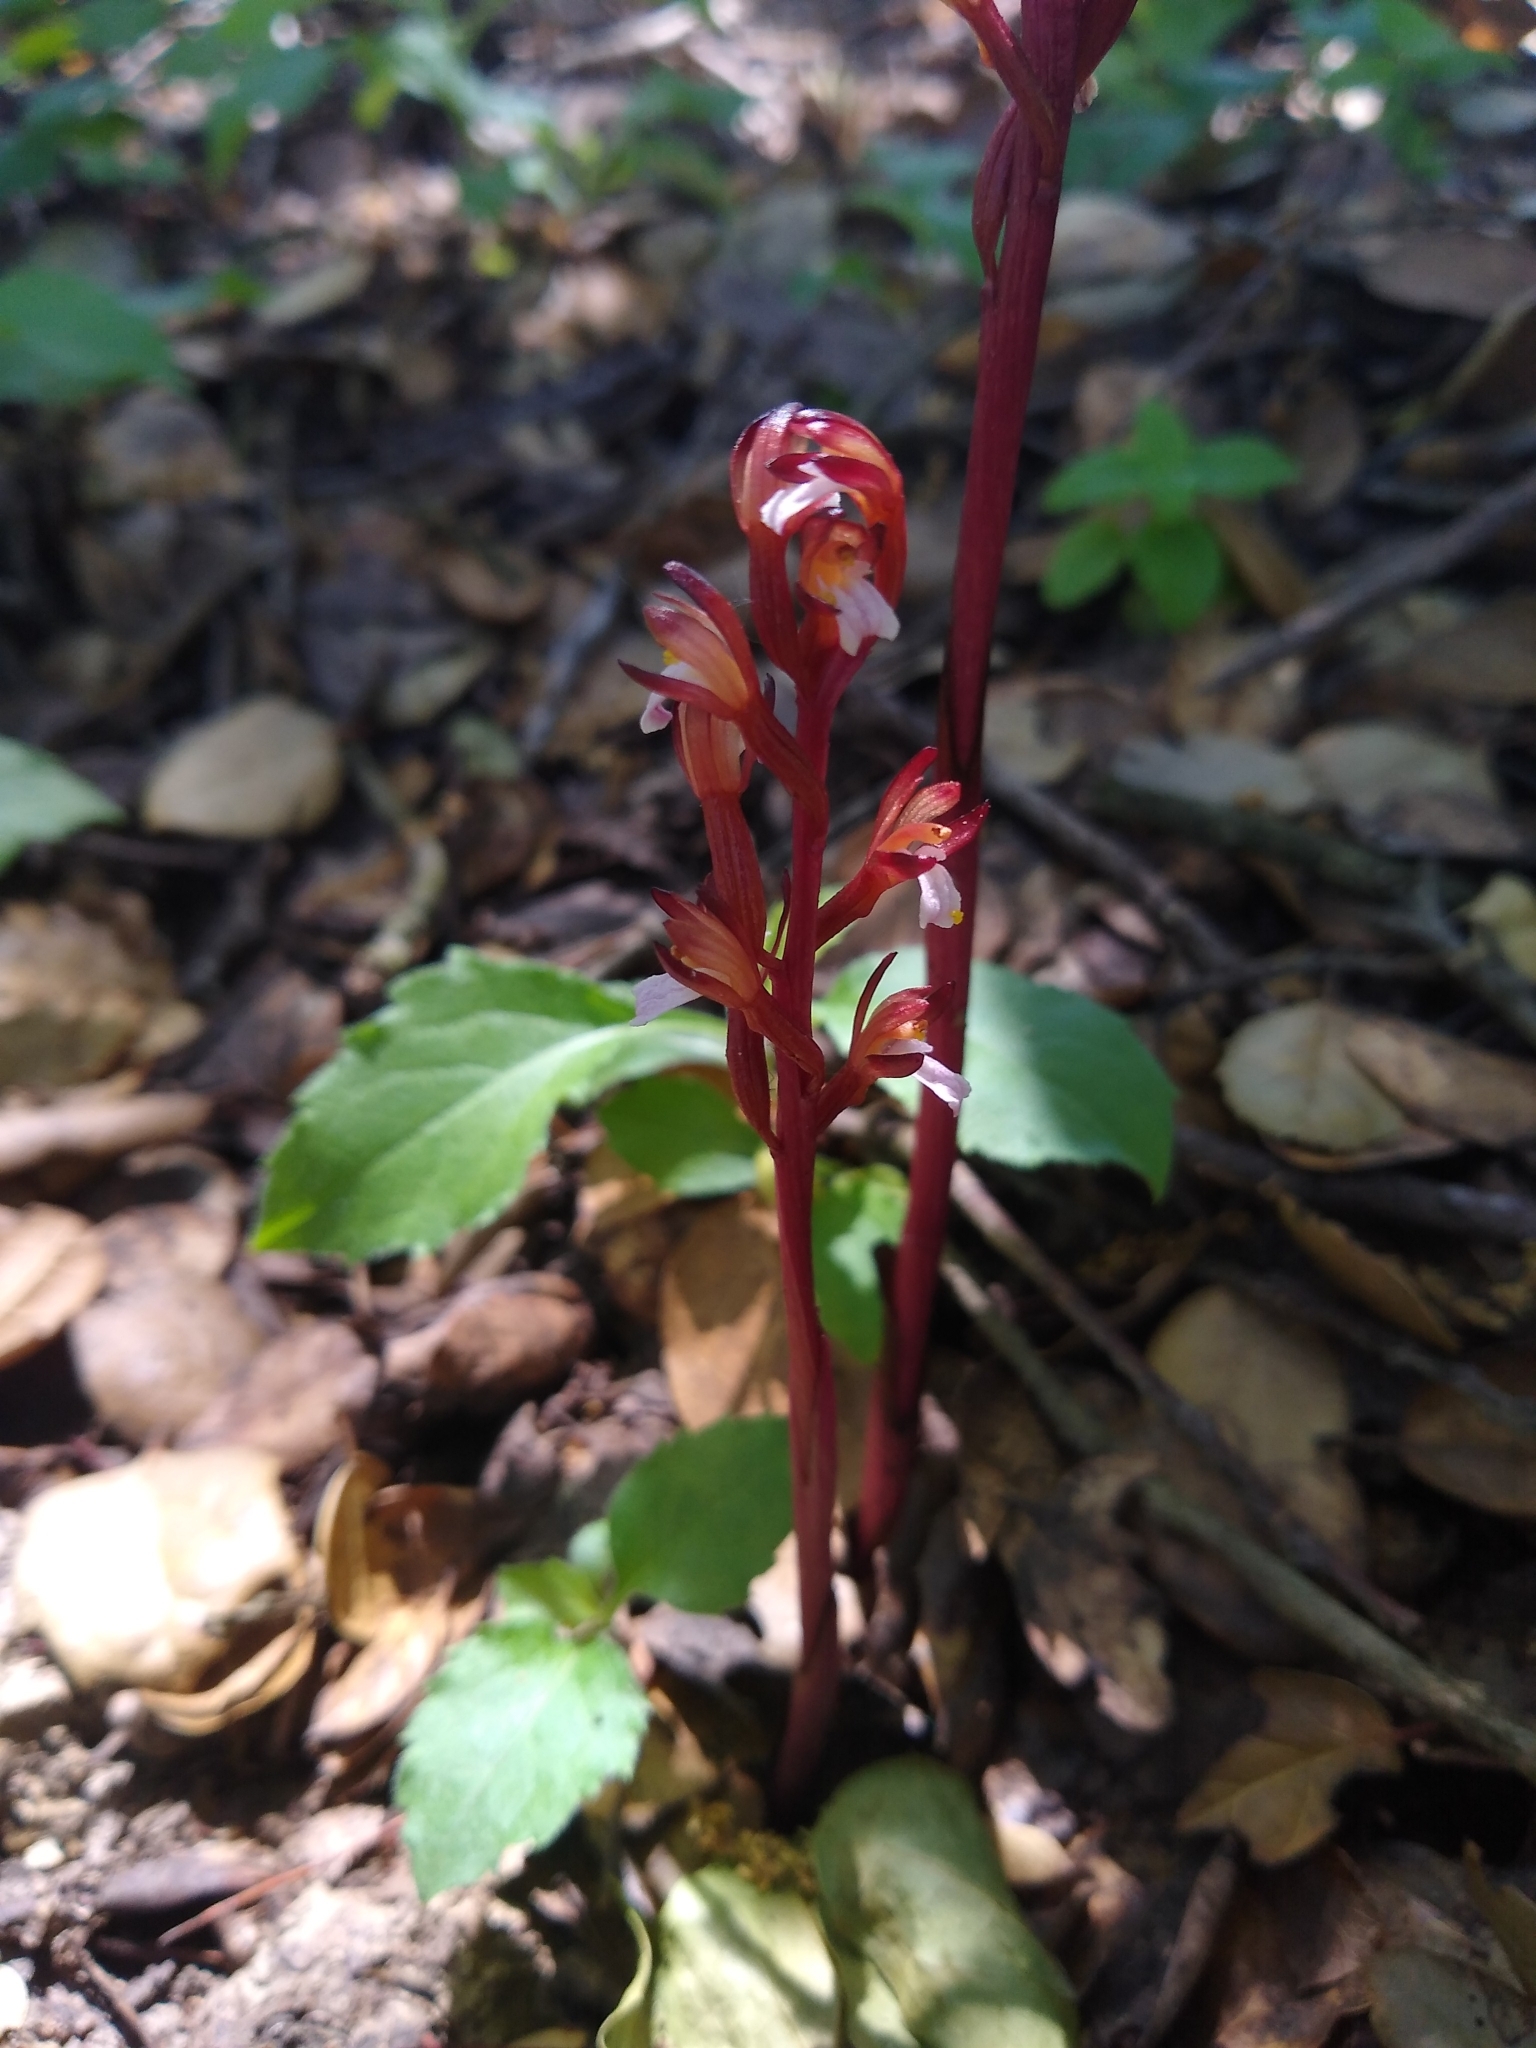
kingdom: Plantae
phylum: Tracheophyta
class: Liliopsida
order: Asparagales
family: Orchidaceae
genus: Corallorhiza
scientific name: Corallorhiza maculata
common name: Spotted coralroot
